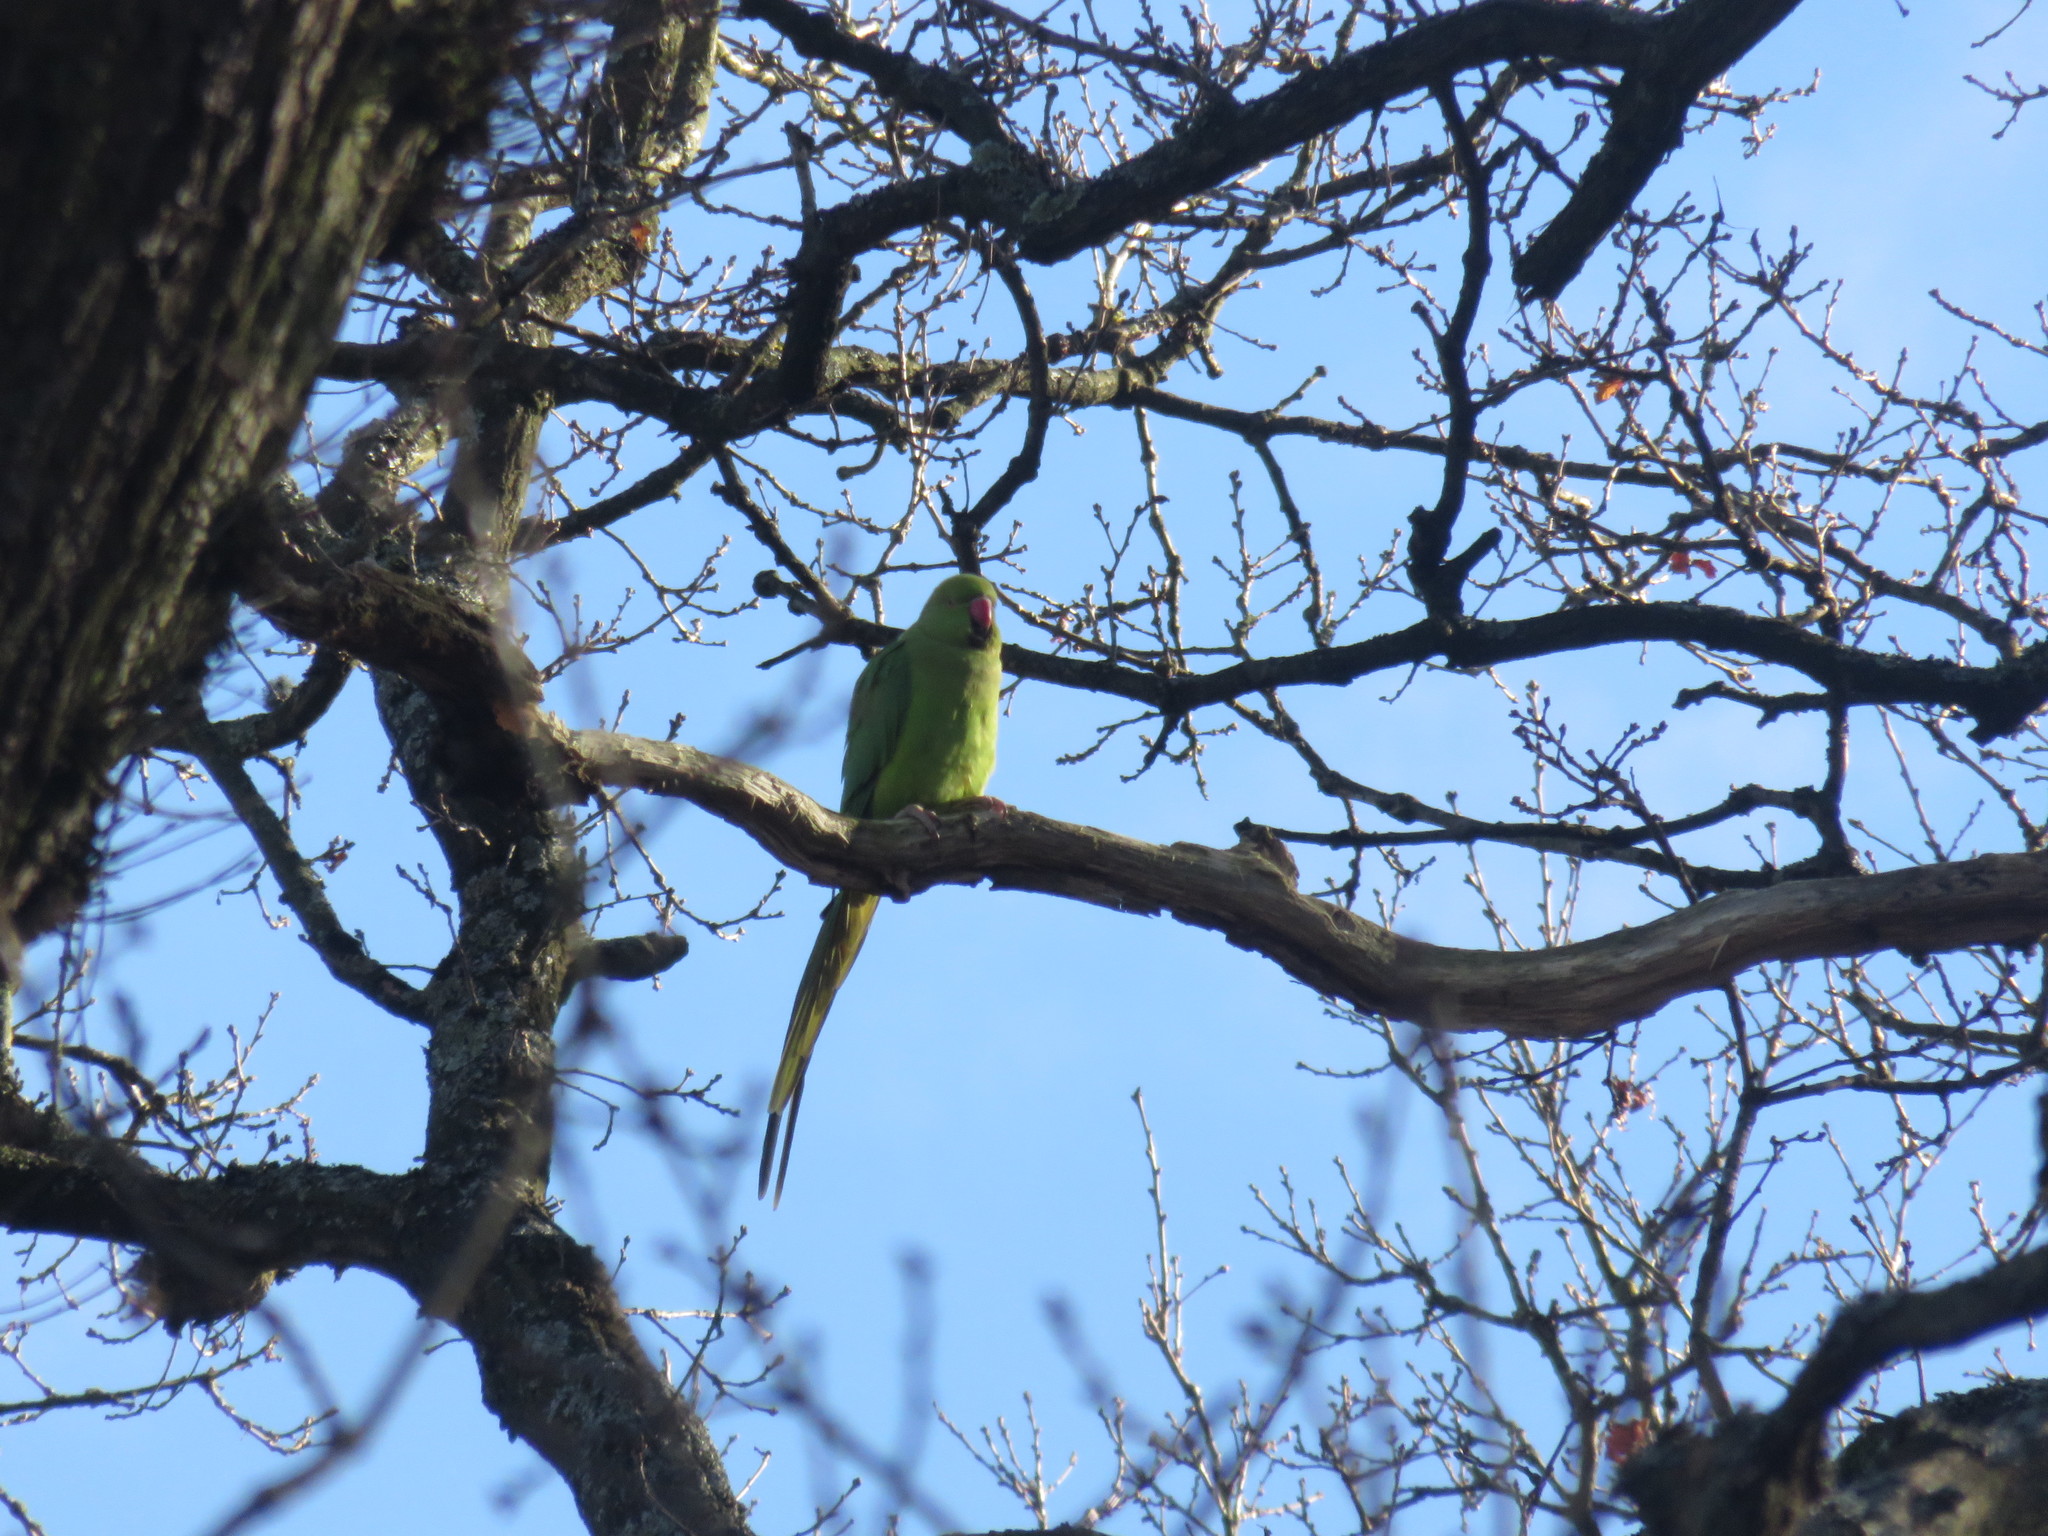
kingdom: Animalia
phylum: Chordata
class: Aves
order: Psittaciformes
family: Psittacidae
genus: Psittacula
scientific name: Psittacula krameri
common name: Rose-ringed parakeet
